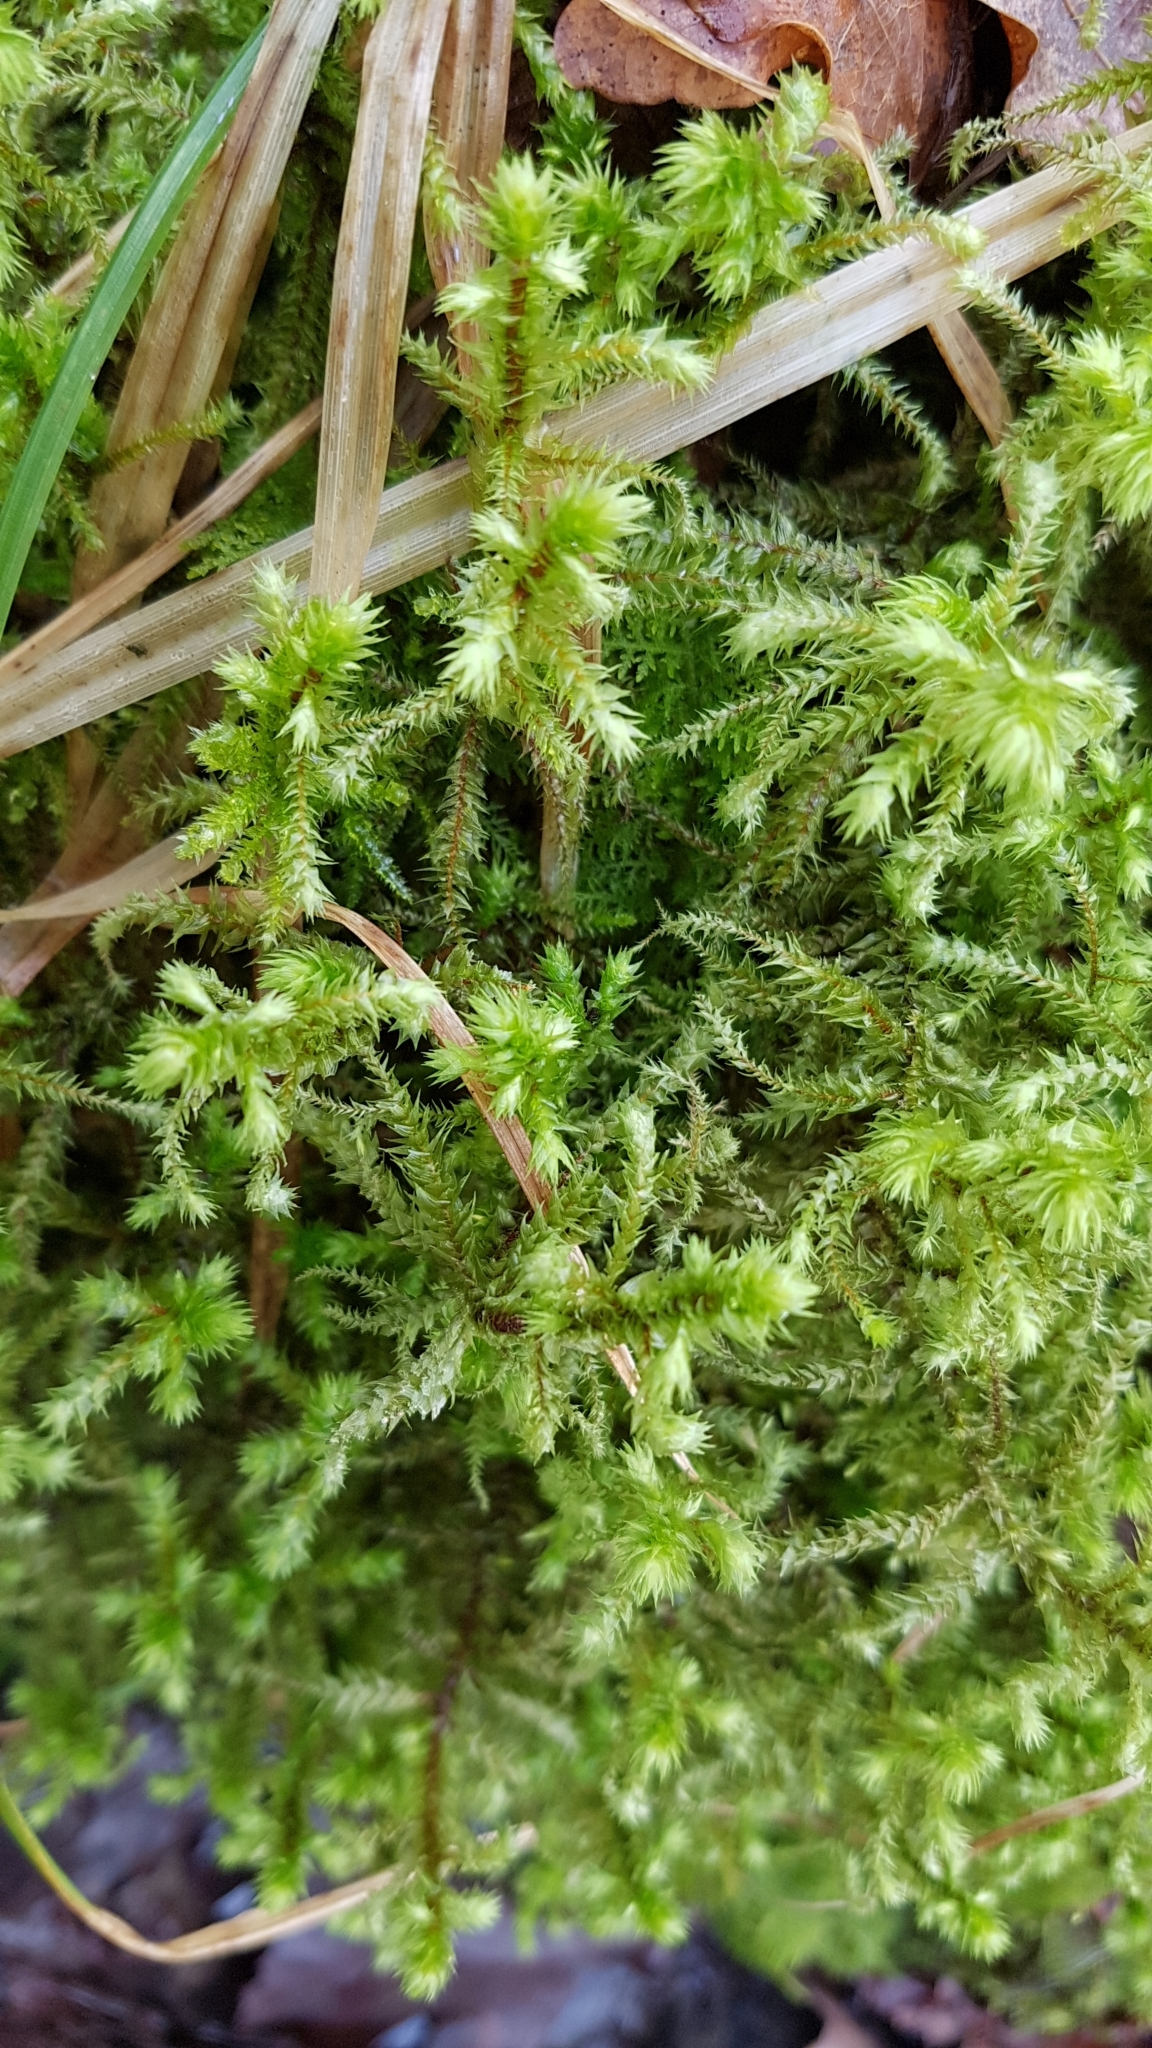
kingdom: Plantae
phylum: Bryophyta
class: Bryopsida
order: Hypnales
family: Hylocomiaceae
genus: Hylocomiadelphus
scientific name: Hylocomiadelphus triquetrus
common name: Rough goose neck moss
